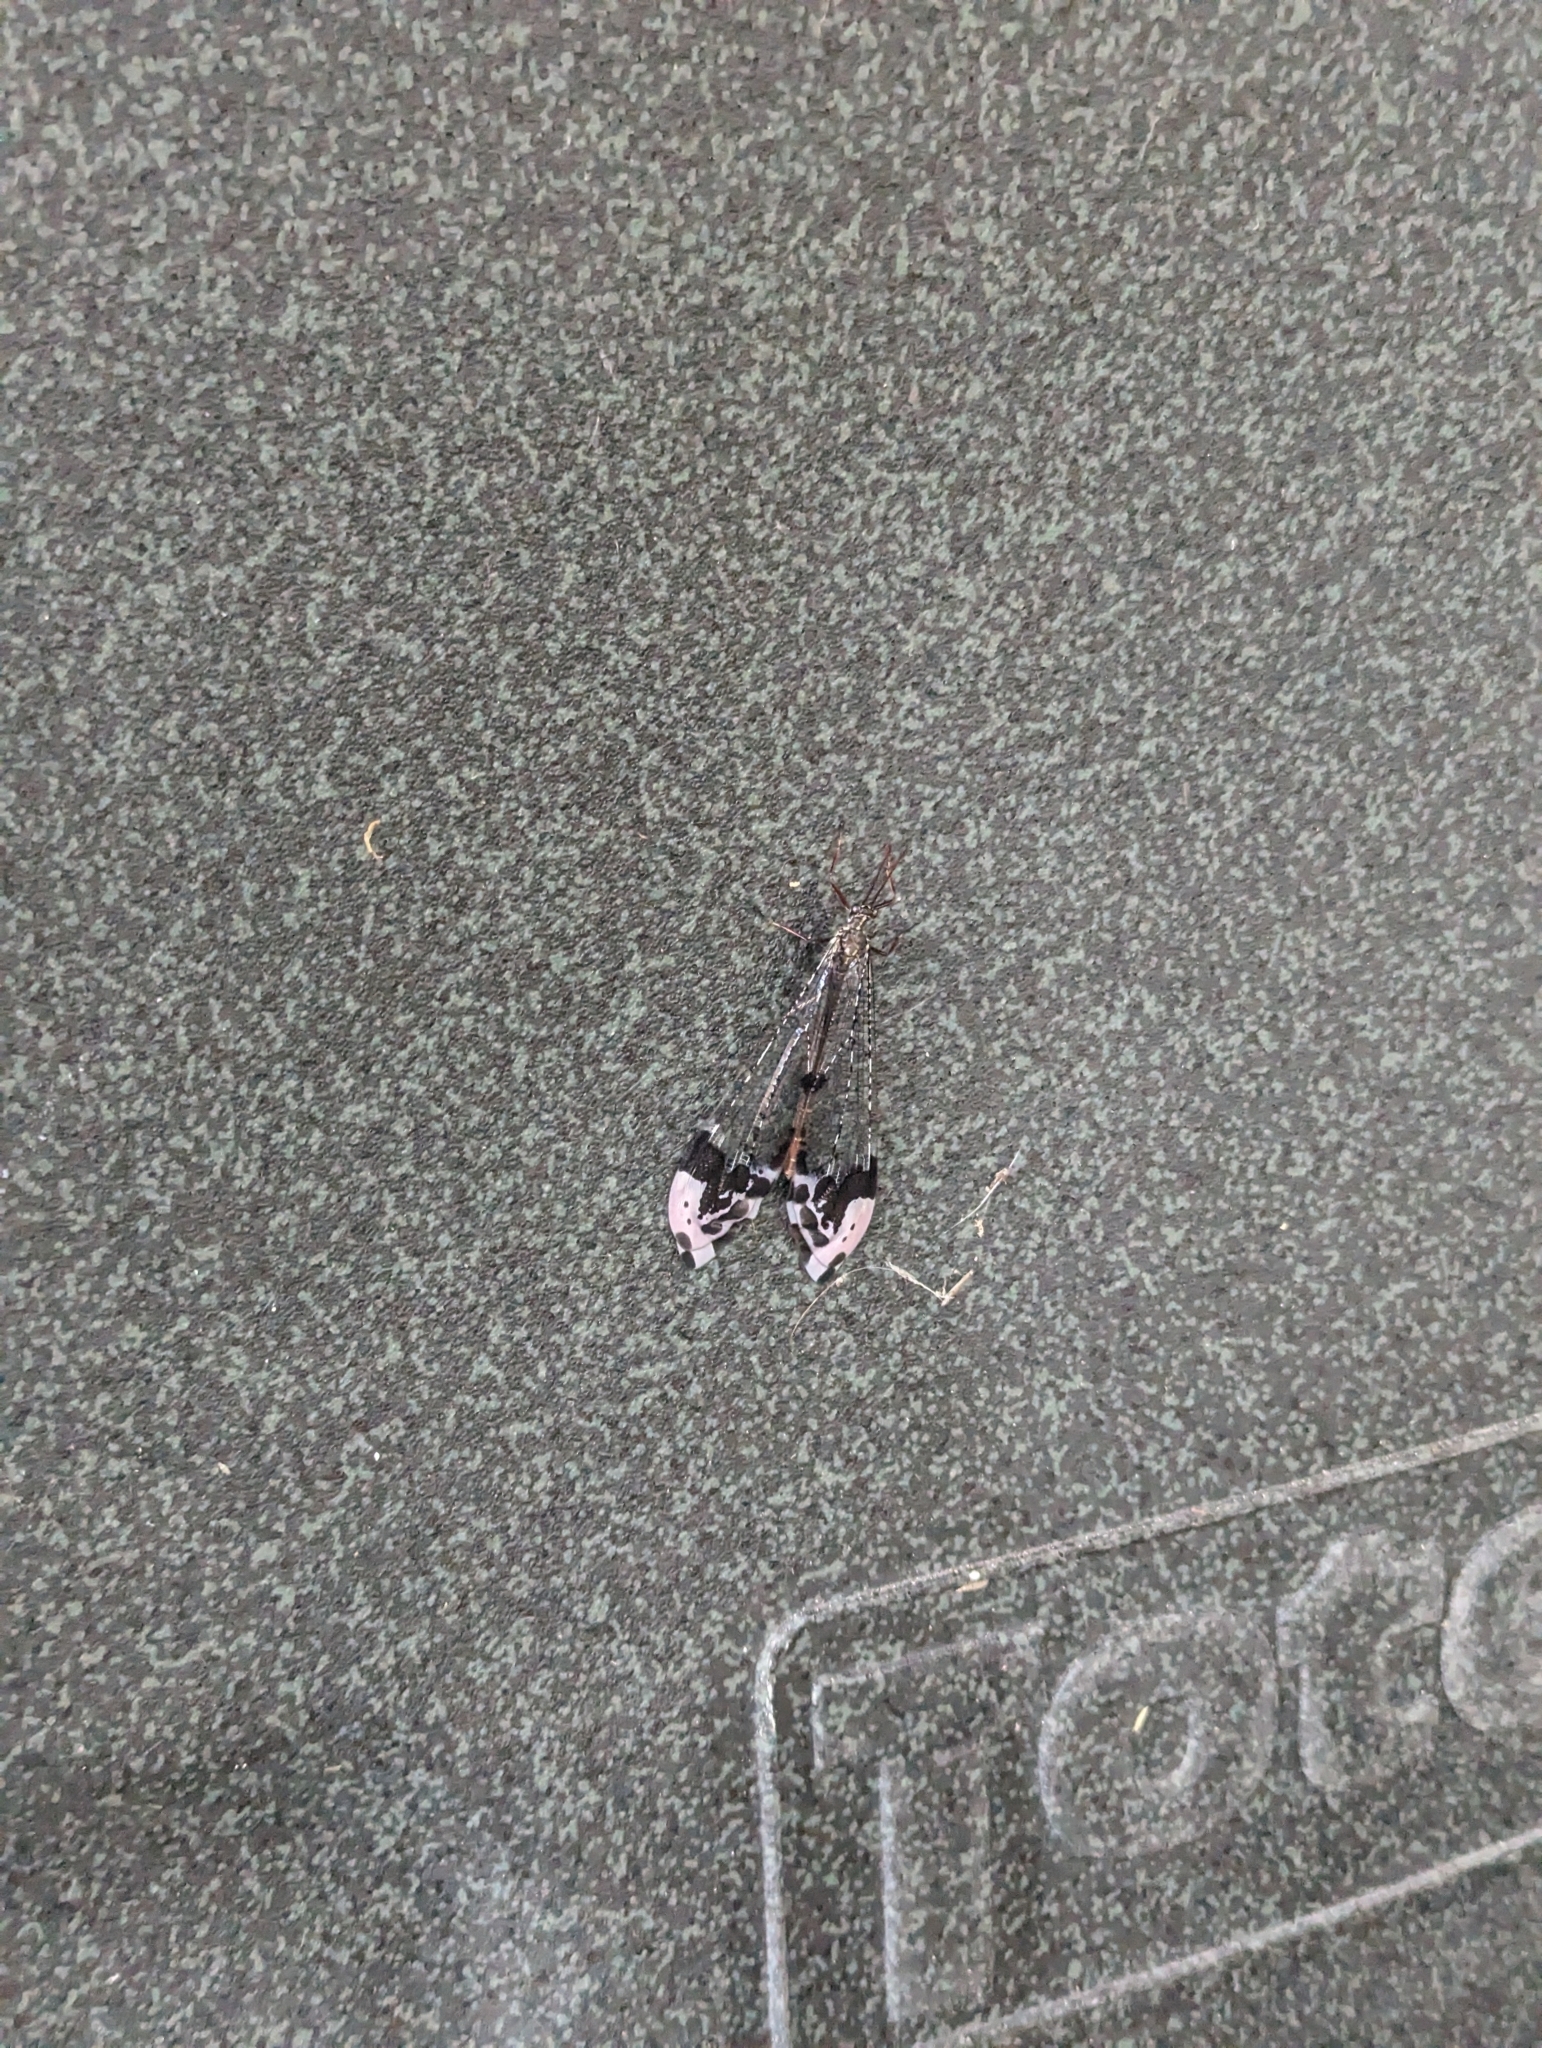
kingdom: Animalia
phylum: Arthropoda
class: Insecta
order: Neuroptera
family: Myrmeleontidae
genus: Glenurus
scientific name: Glenurus gratus
